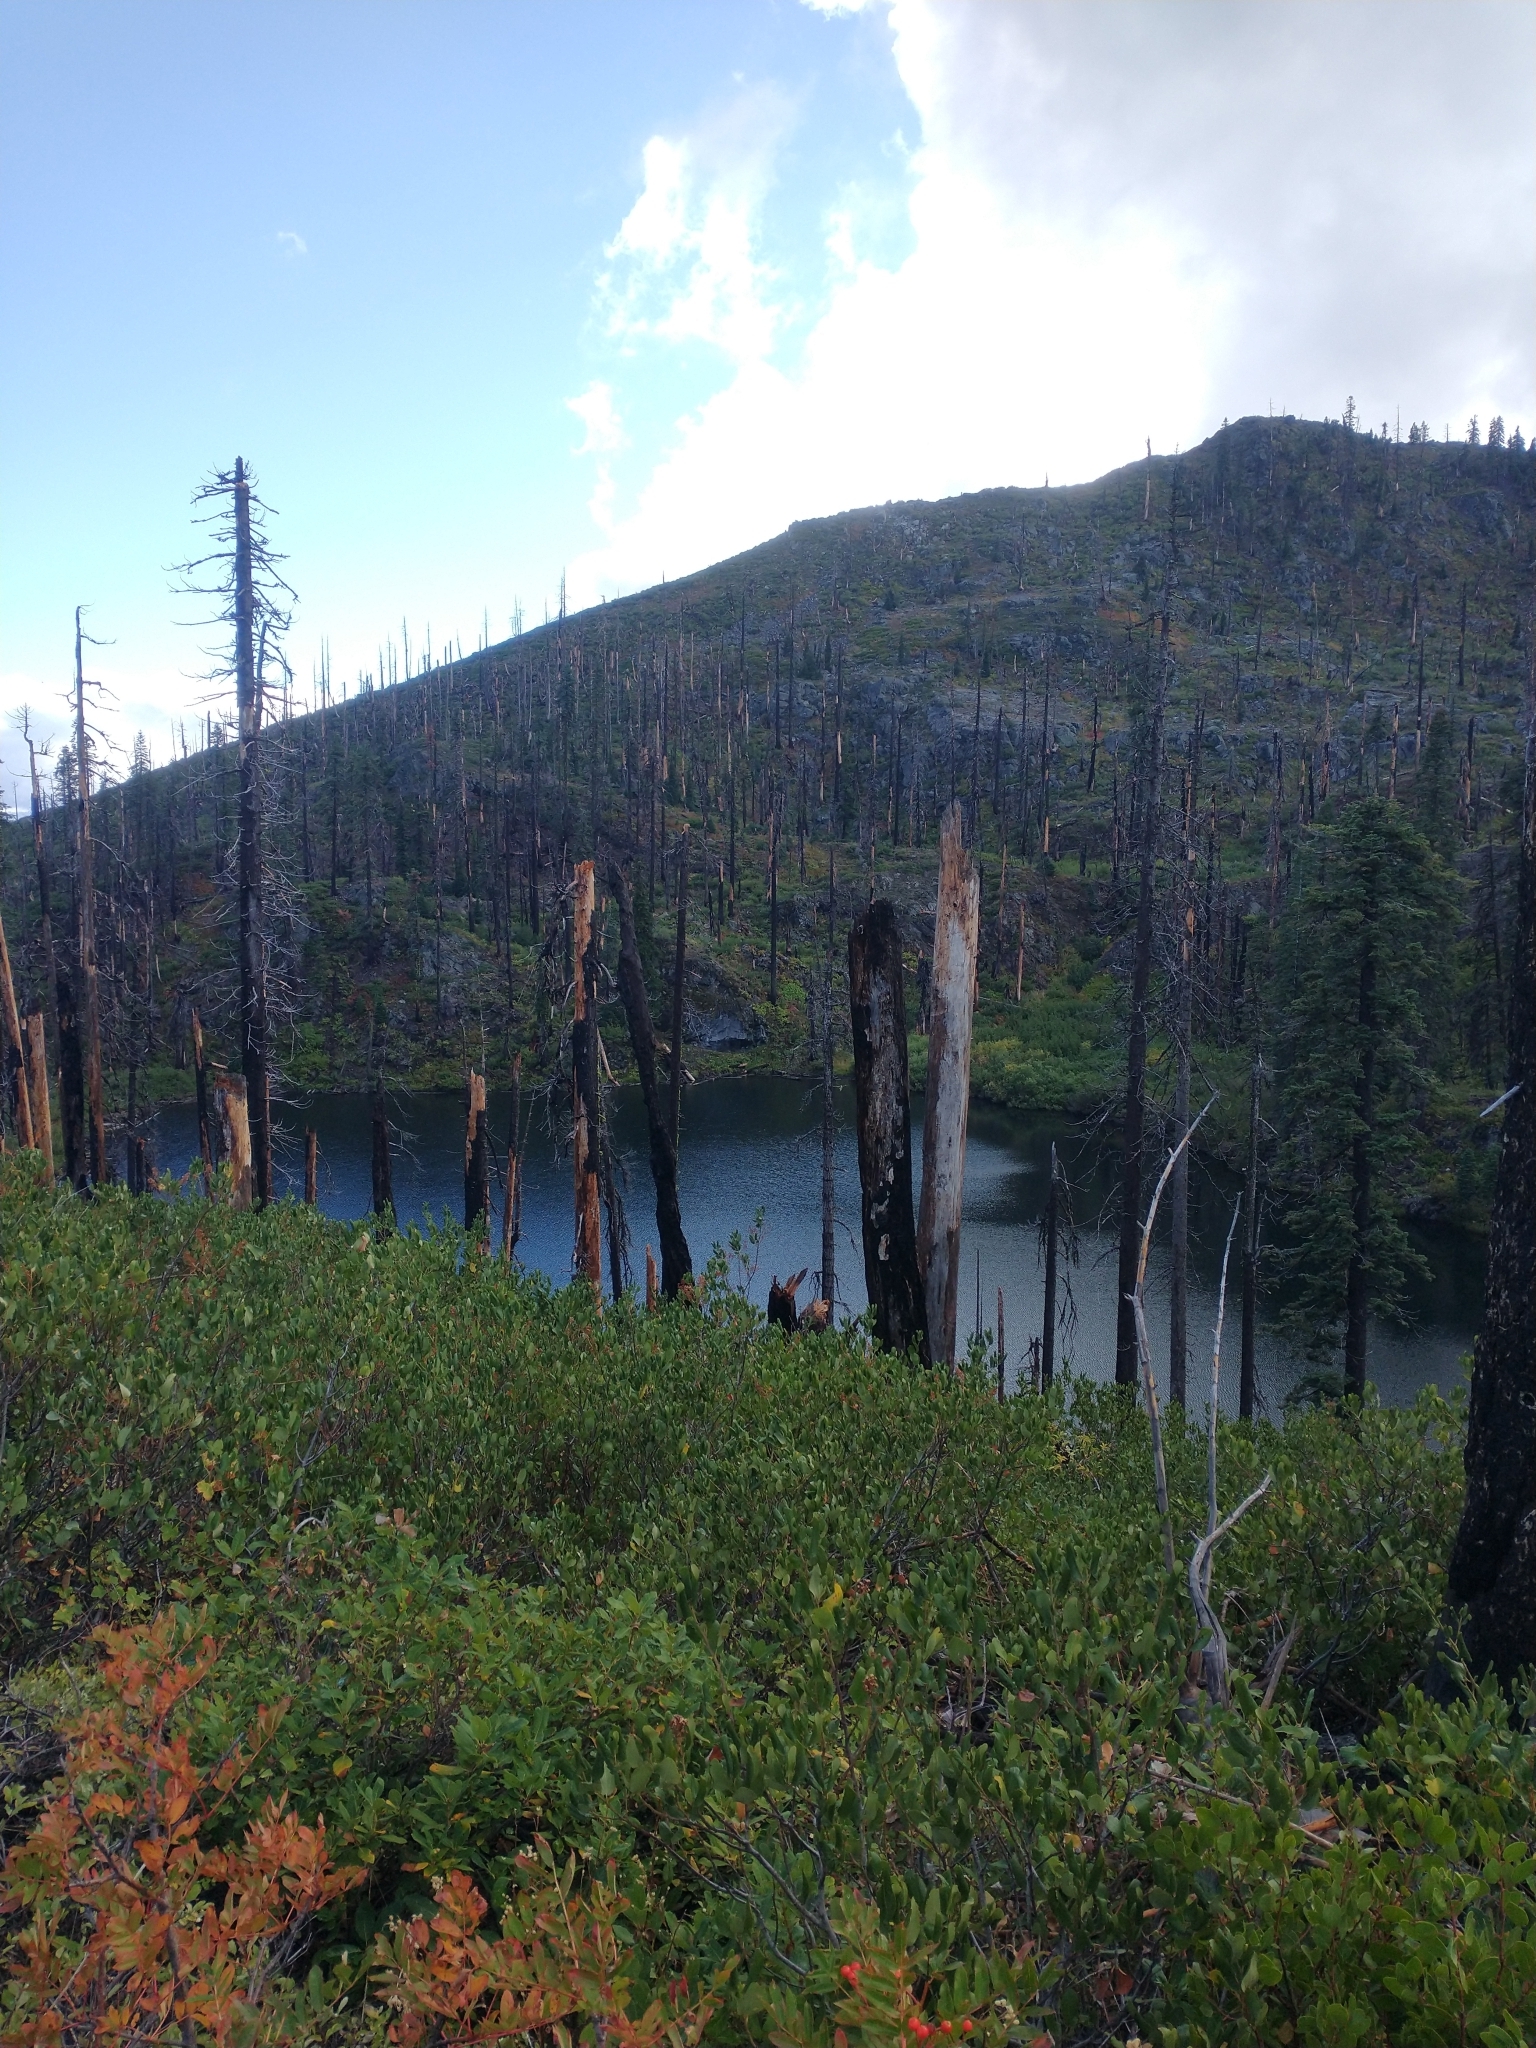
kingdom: Plantae
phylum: Tracheophyta
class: Magnoliopsida
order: Rosales
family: Rhamnaceae
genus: Ceanothus
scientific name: Ceanothus velutinus
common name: Snowbrush
